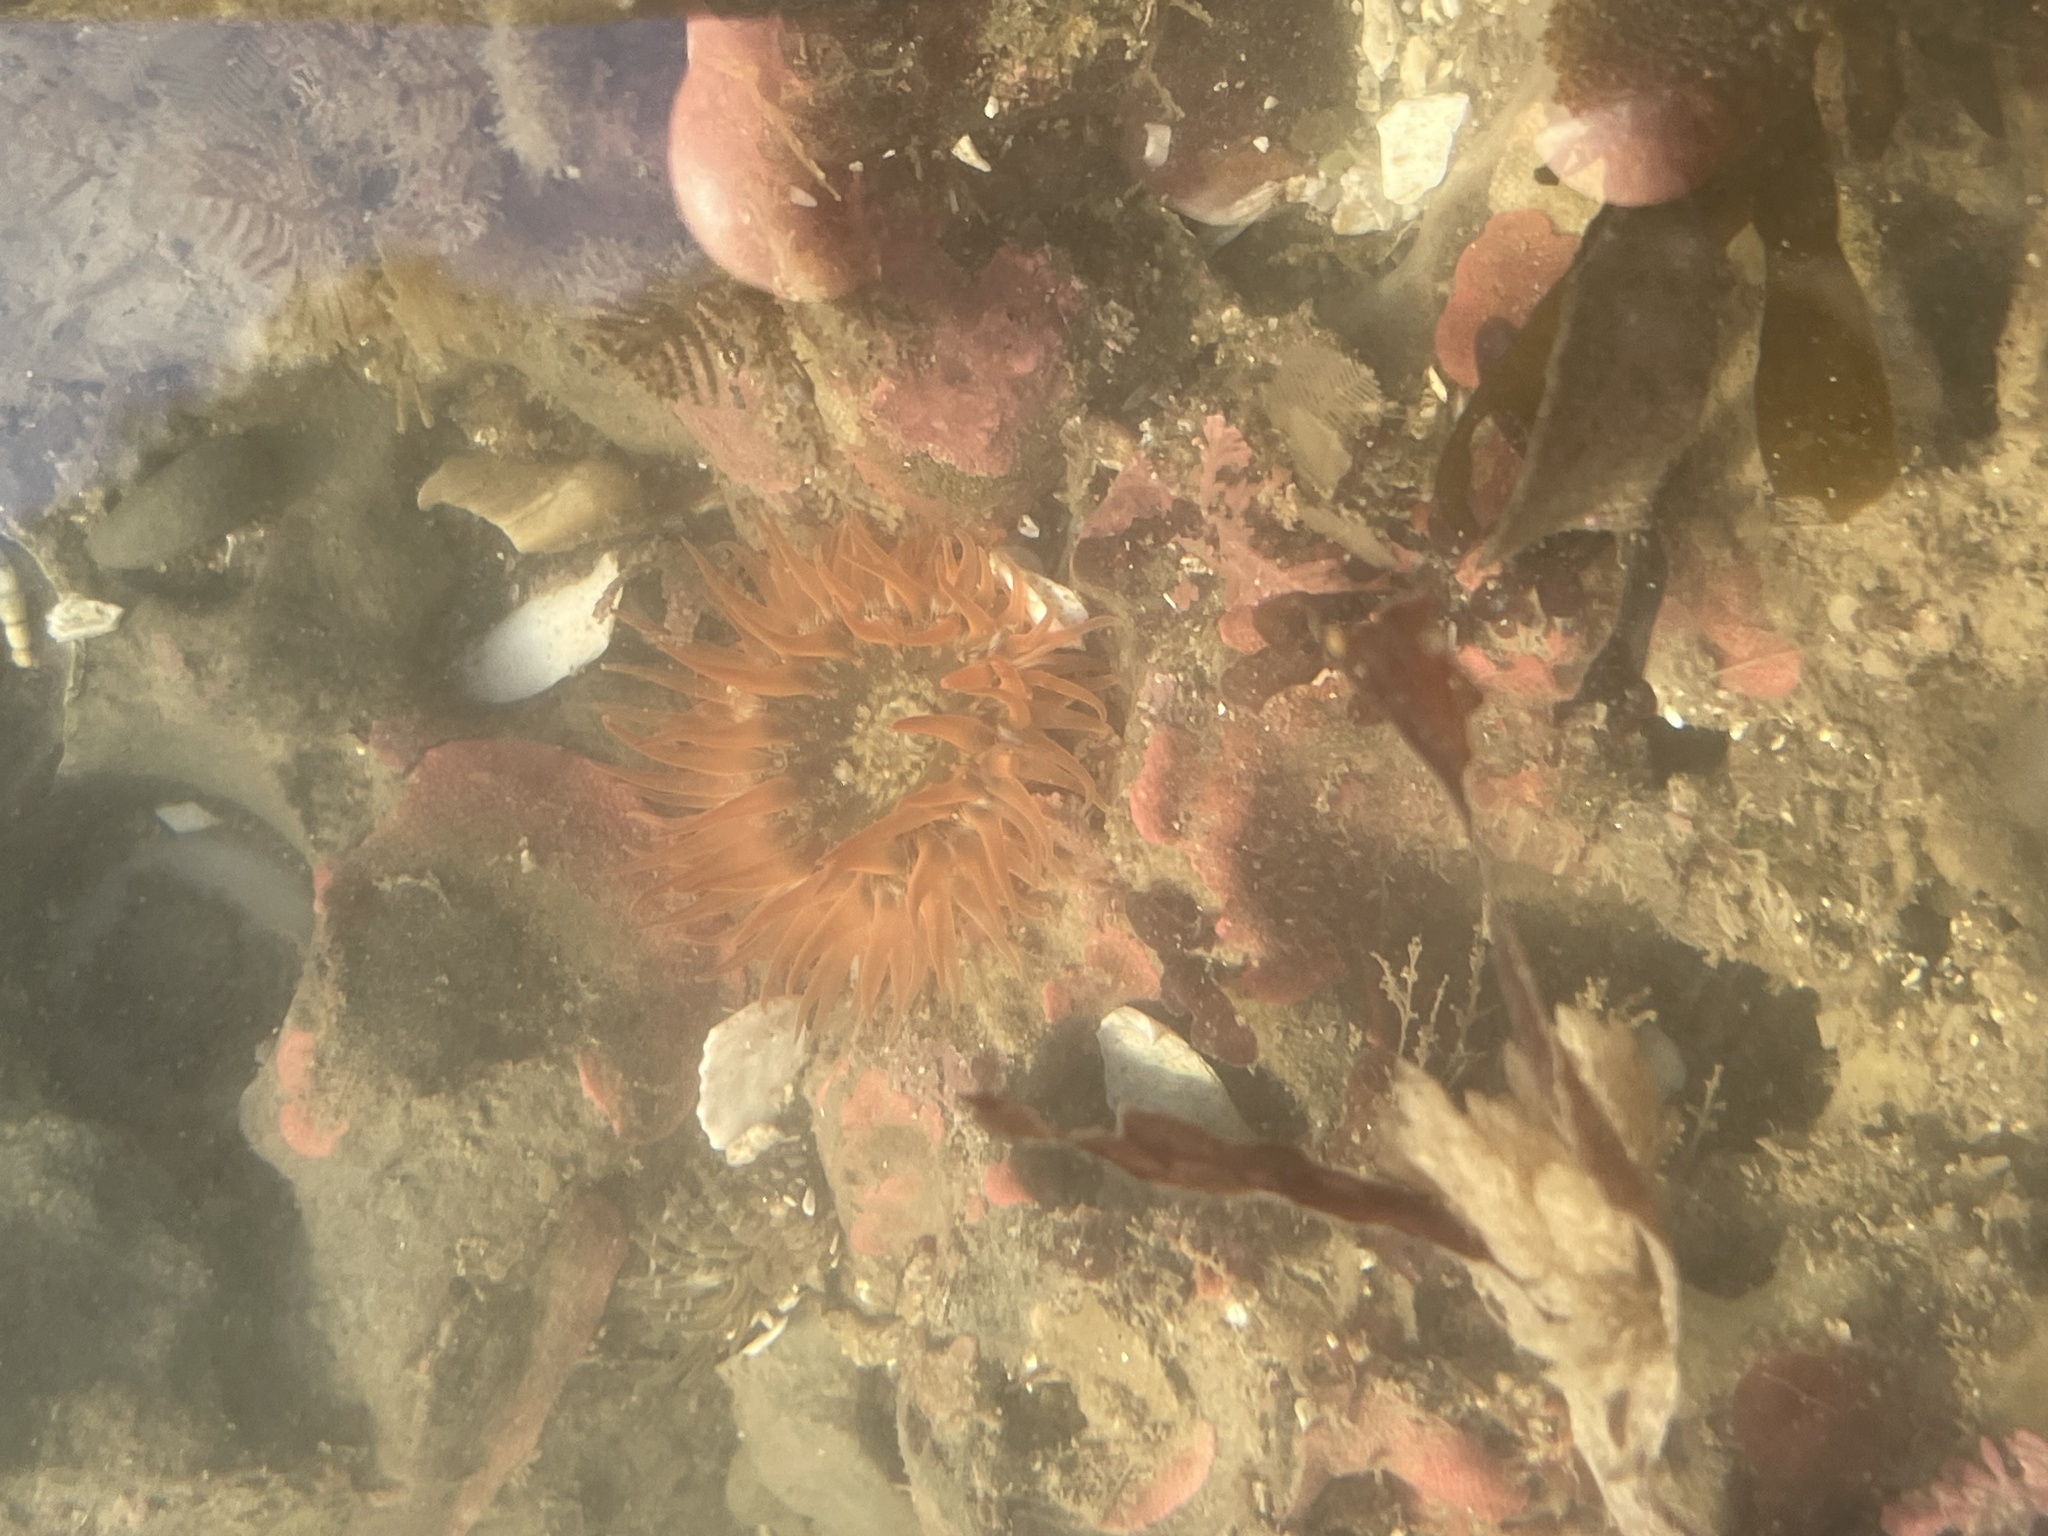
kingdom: Animalia
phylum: Cnidaria
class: Anthozoa
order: Actiniaria
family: Actiniidae
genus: Anthopleura
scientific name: Anthopleura artemisia
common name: Buried sea anemone
